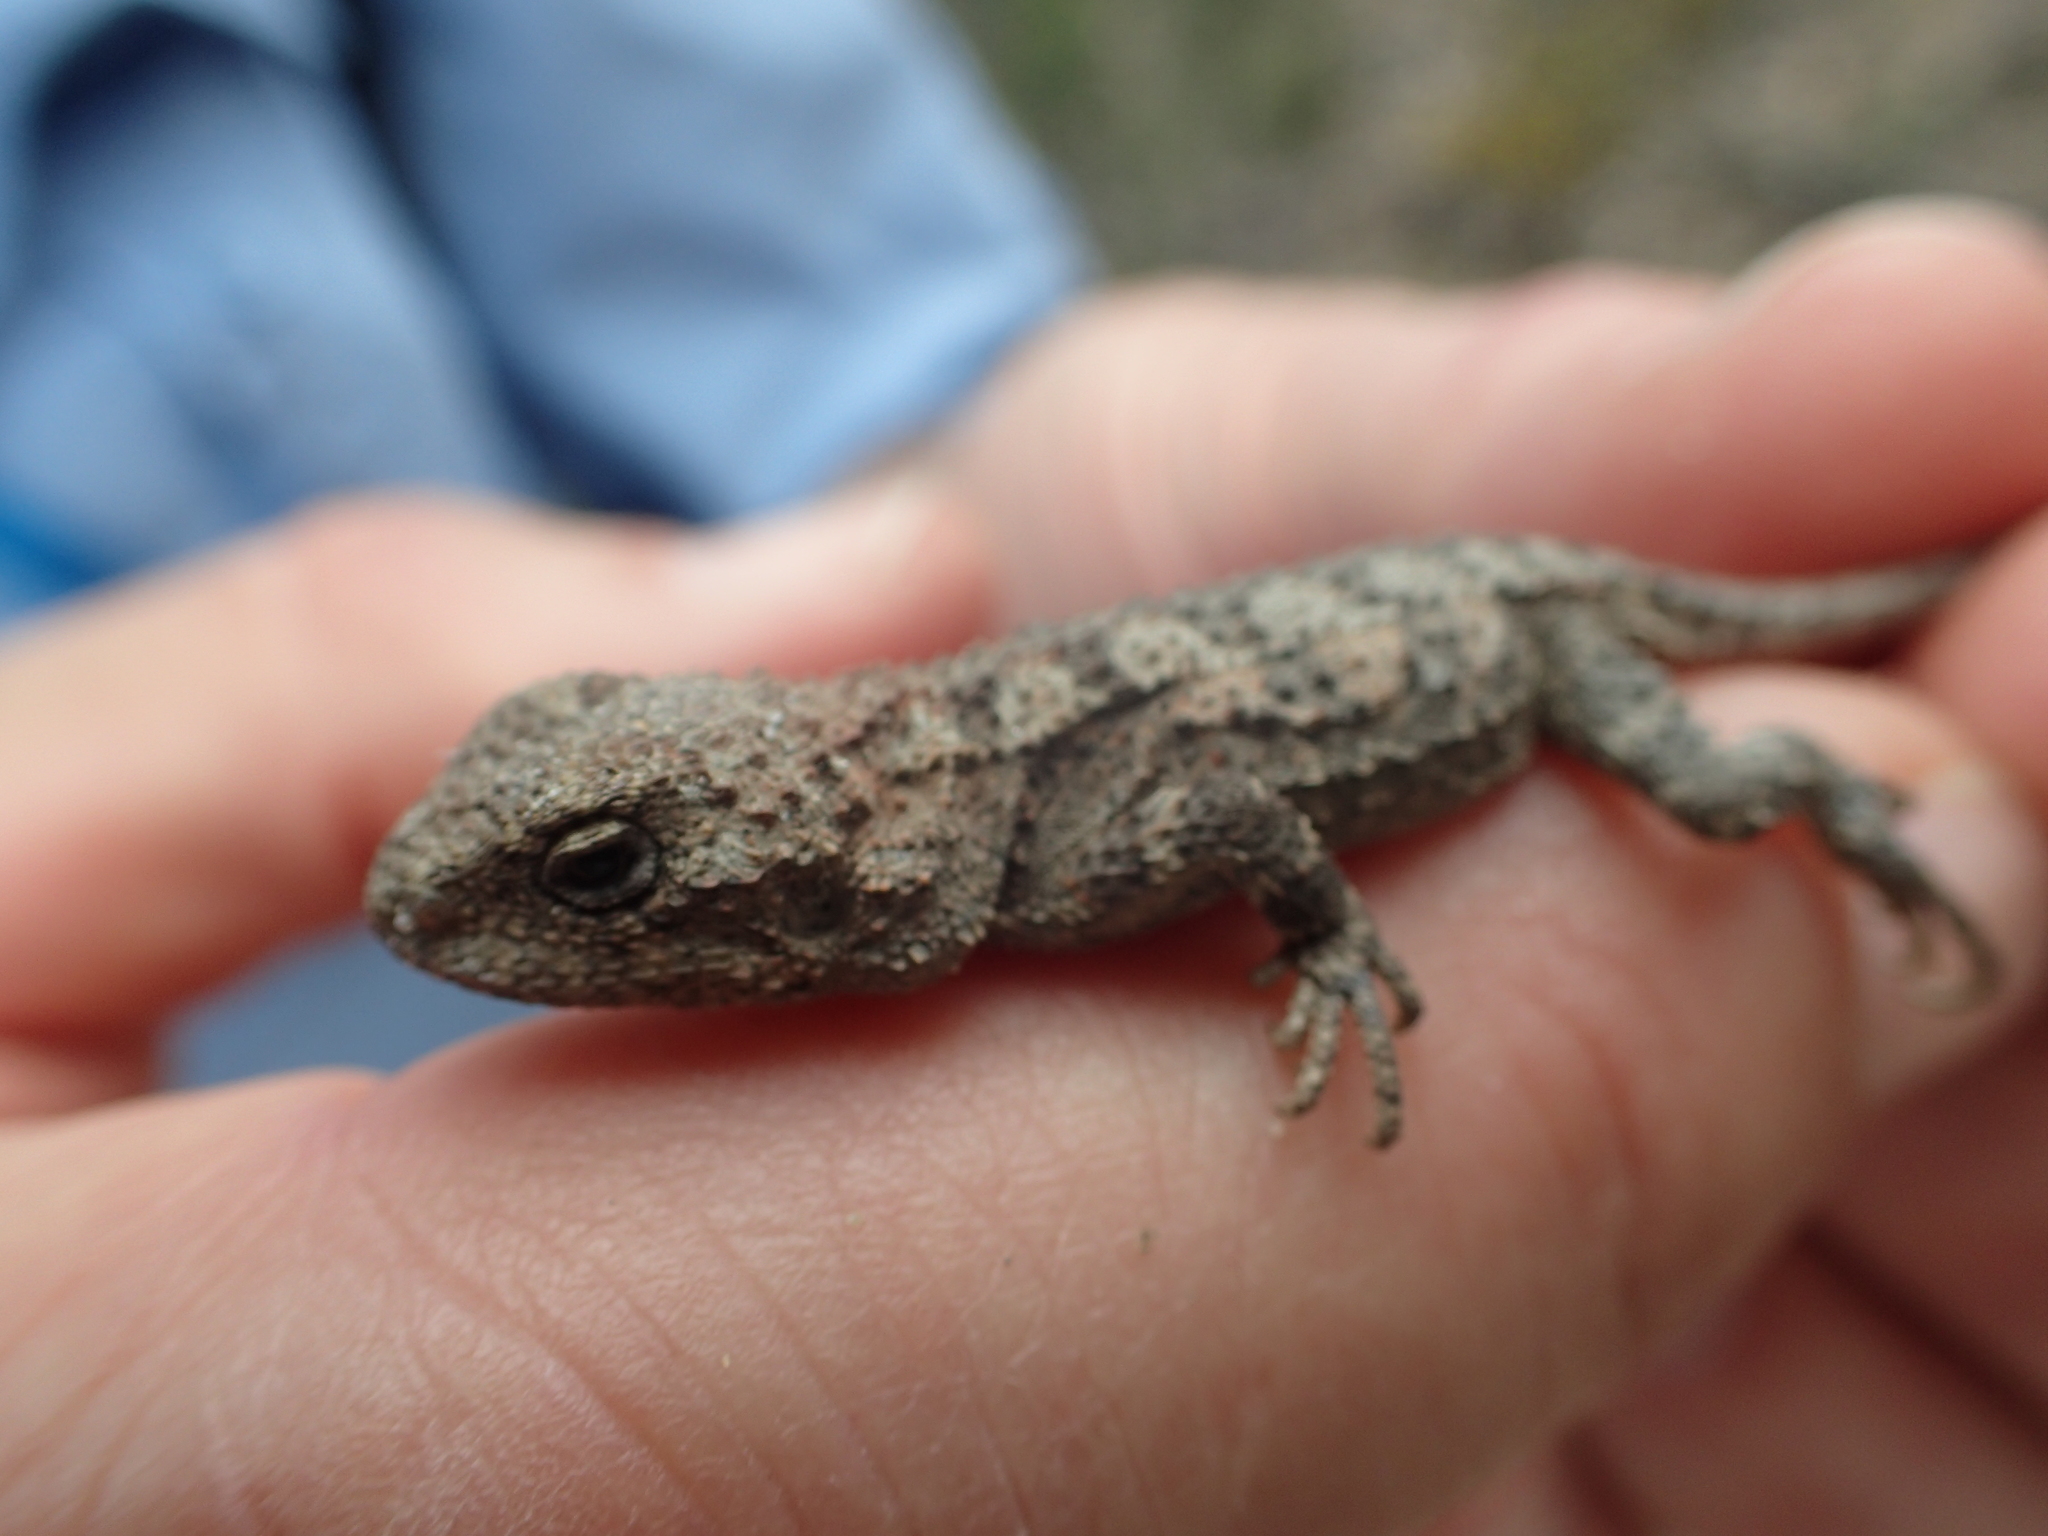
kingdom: Animalia
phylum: Chordata
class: Squamata
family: Agamidae
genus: Rankinia
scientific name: Rankinia diemensis
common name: Mountain dragon
